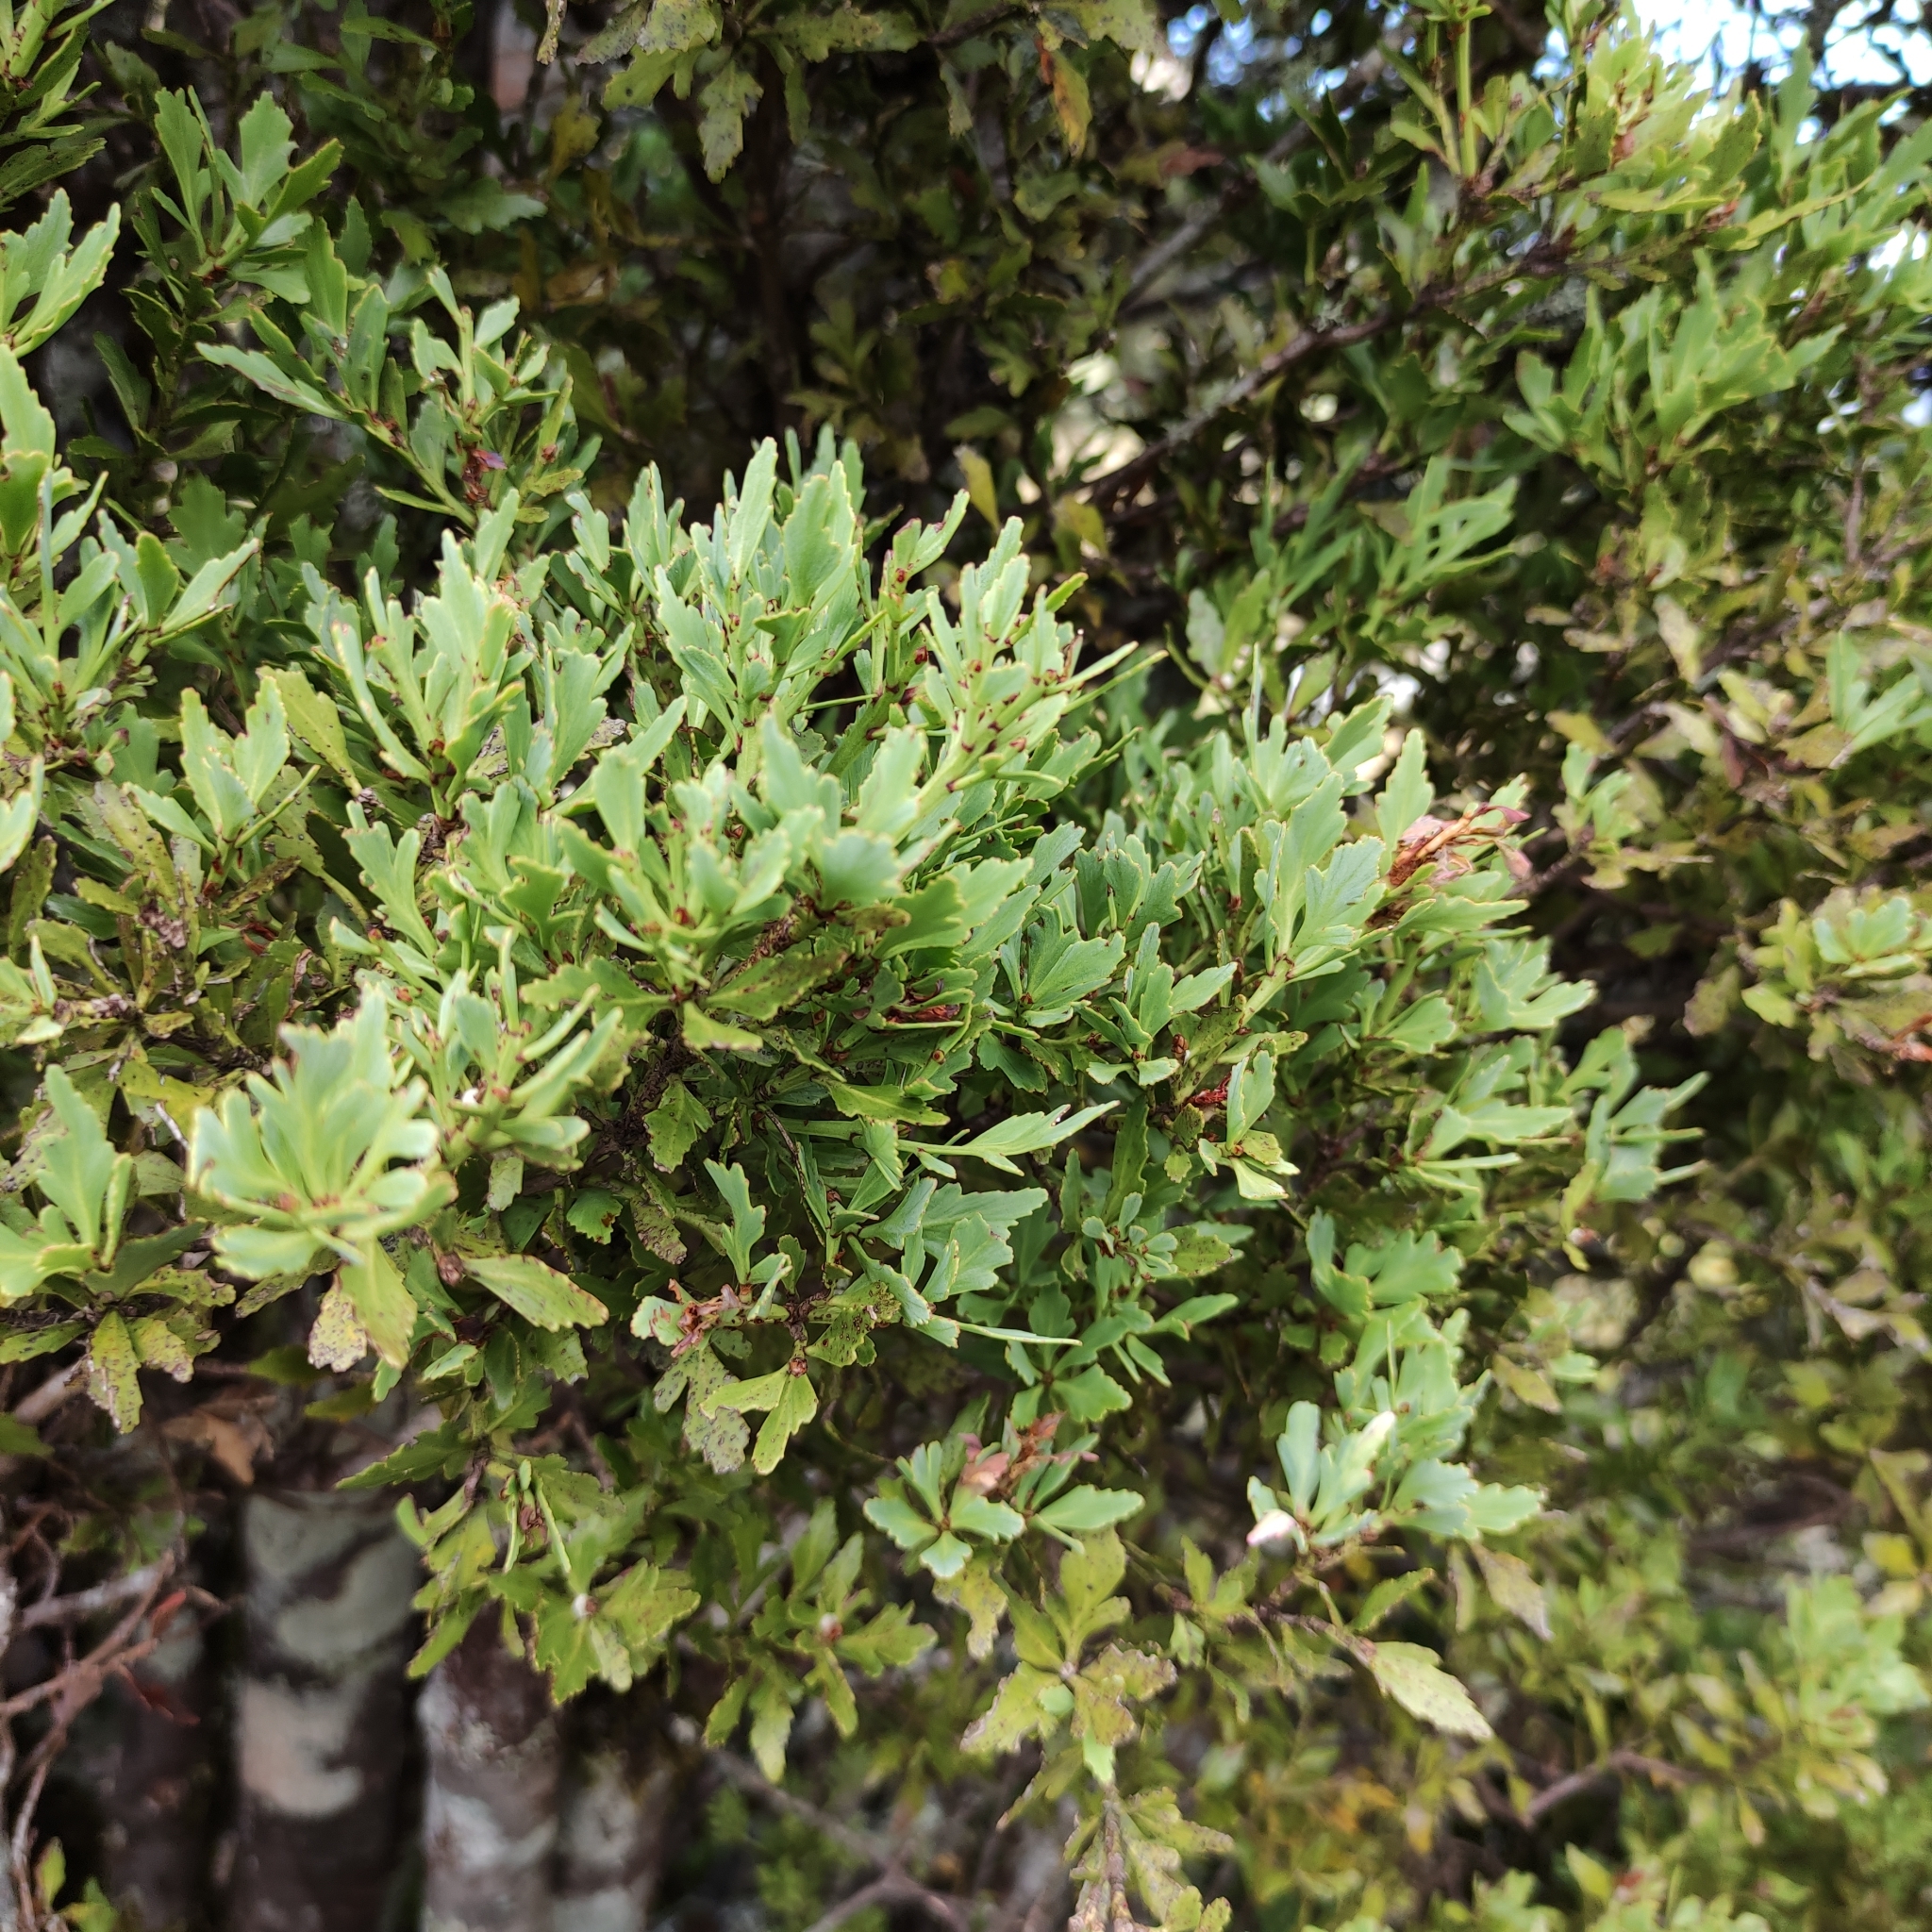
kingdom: Plantae
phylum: Tracheophyta
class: Pinopsida
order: Pinales
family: Phyllocladaceae
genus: Phyllocladus
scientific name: Phyllocladus trichomanoides
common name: Celery pine
